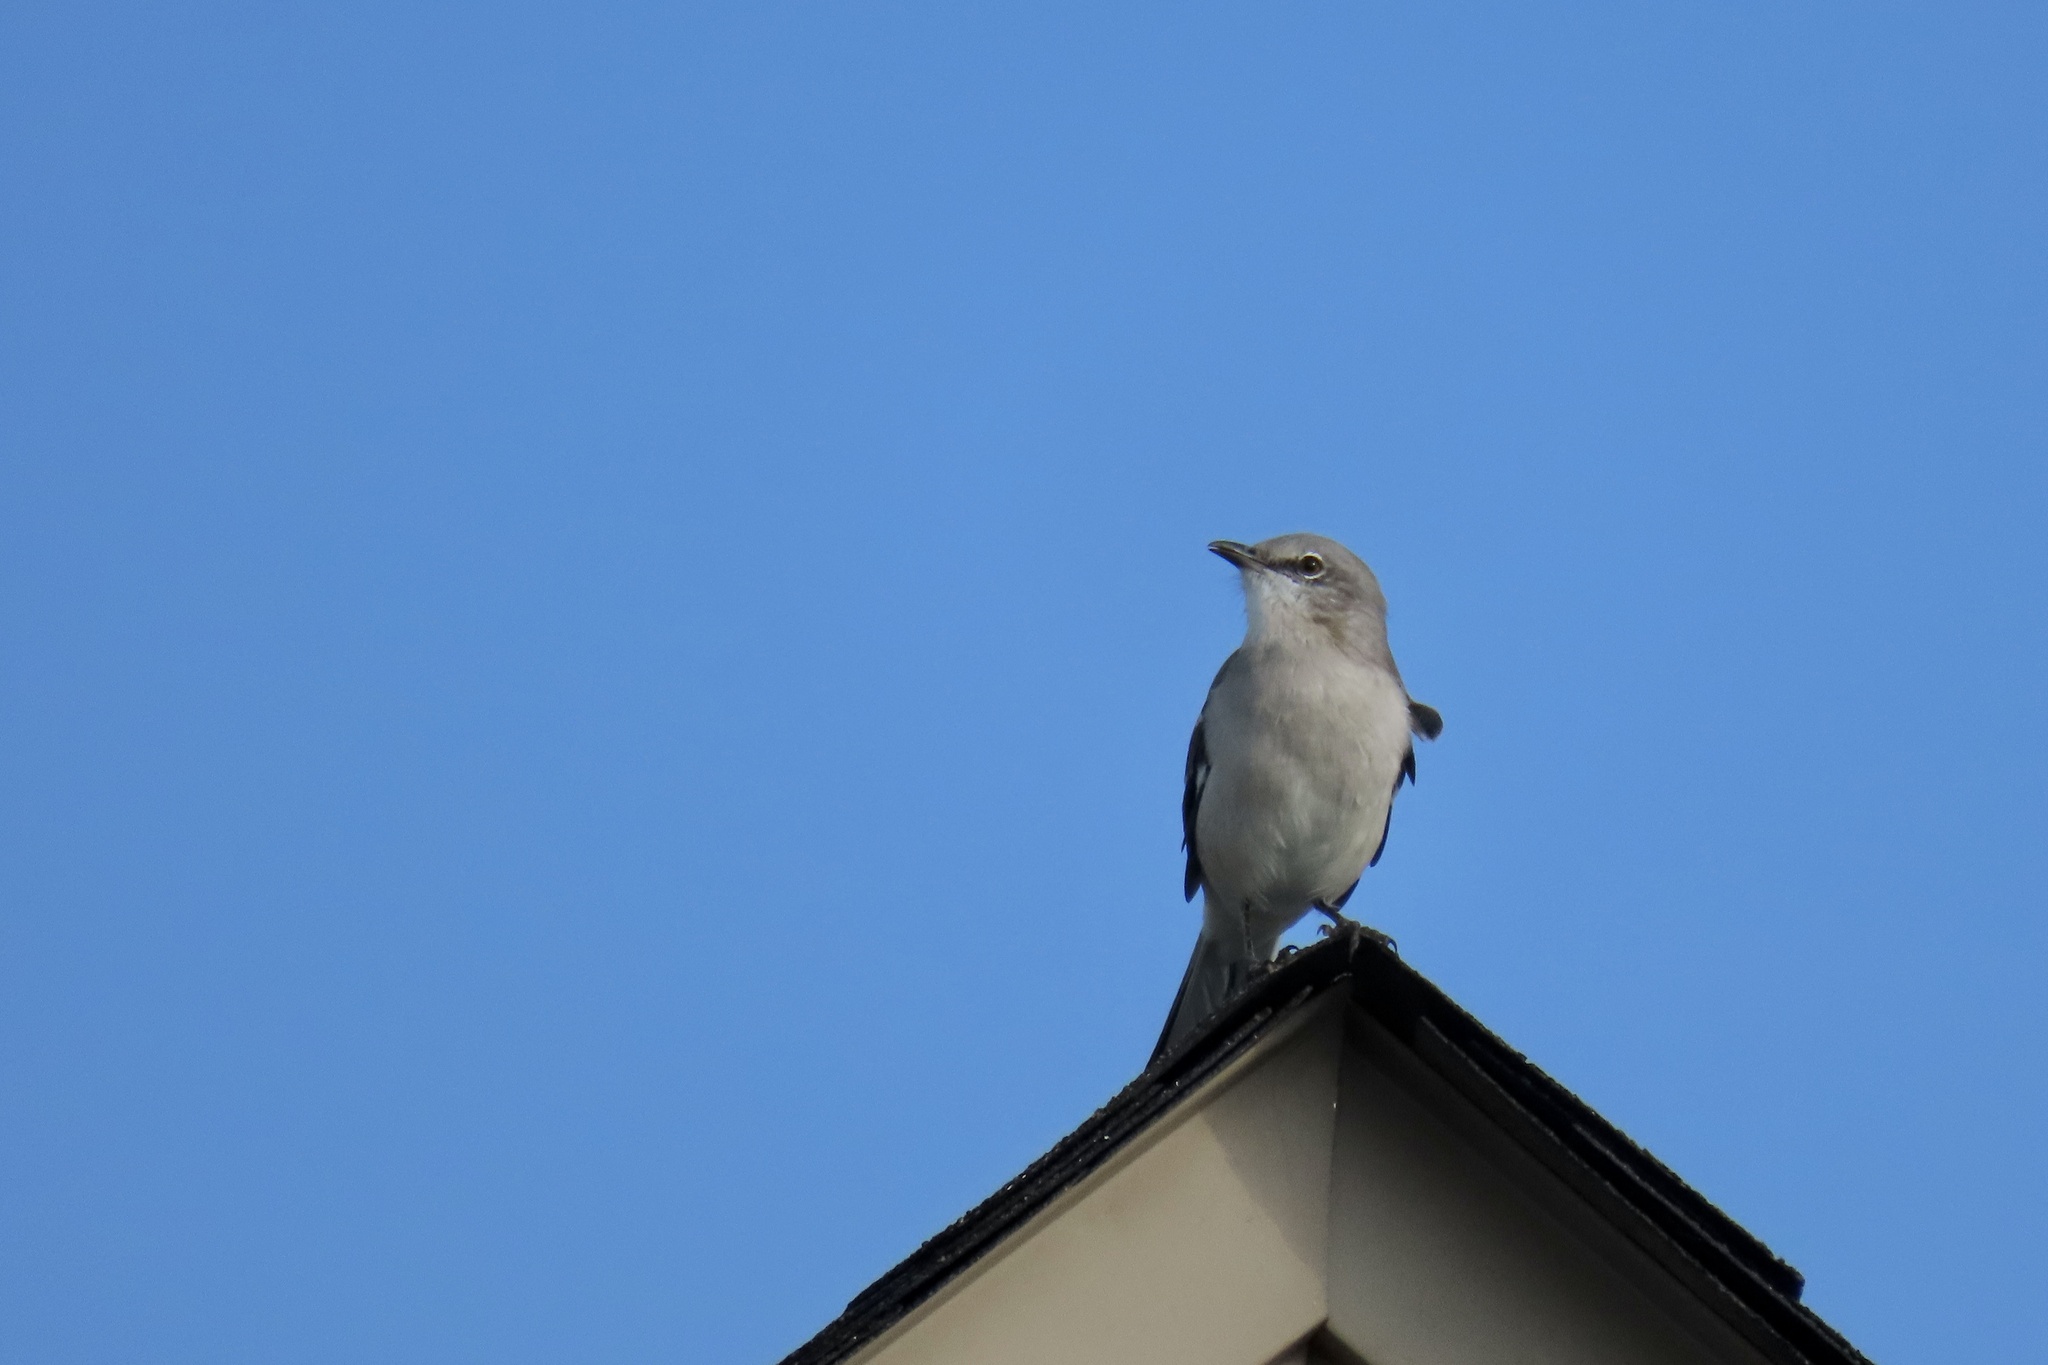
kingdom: Animalia
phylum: Chordata
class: Aves
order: Passeriformes
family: Mimidae
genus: Mimus
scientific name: Mimus polyglottos
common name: Northern mockingbird
